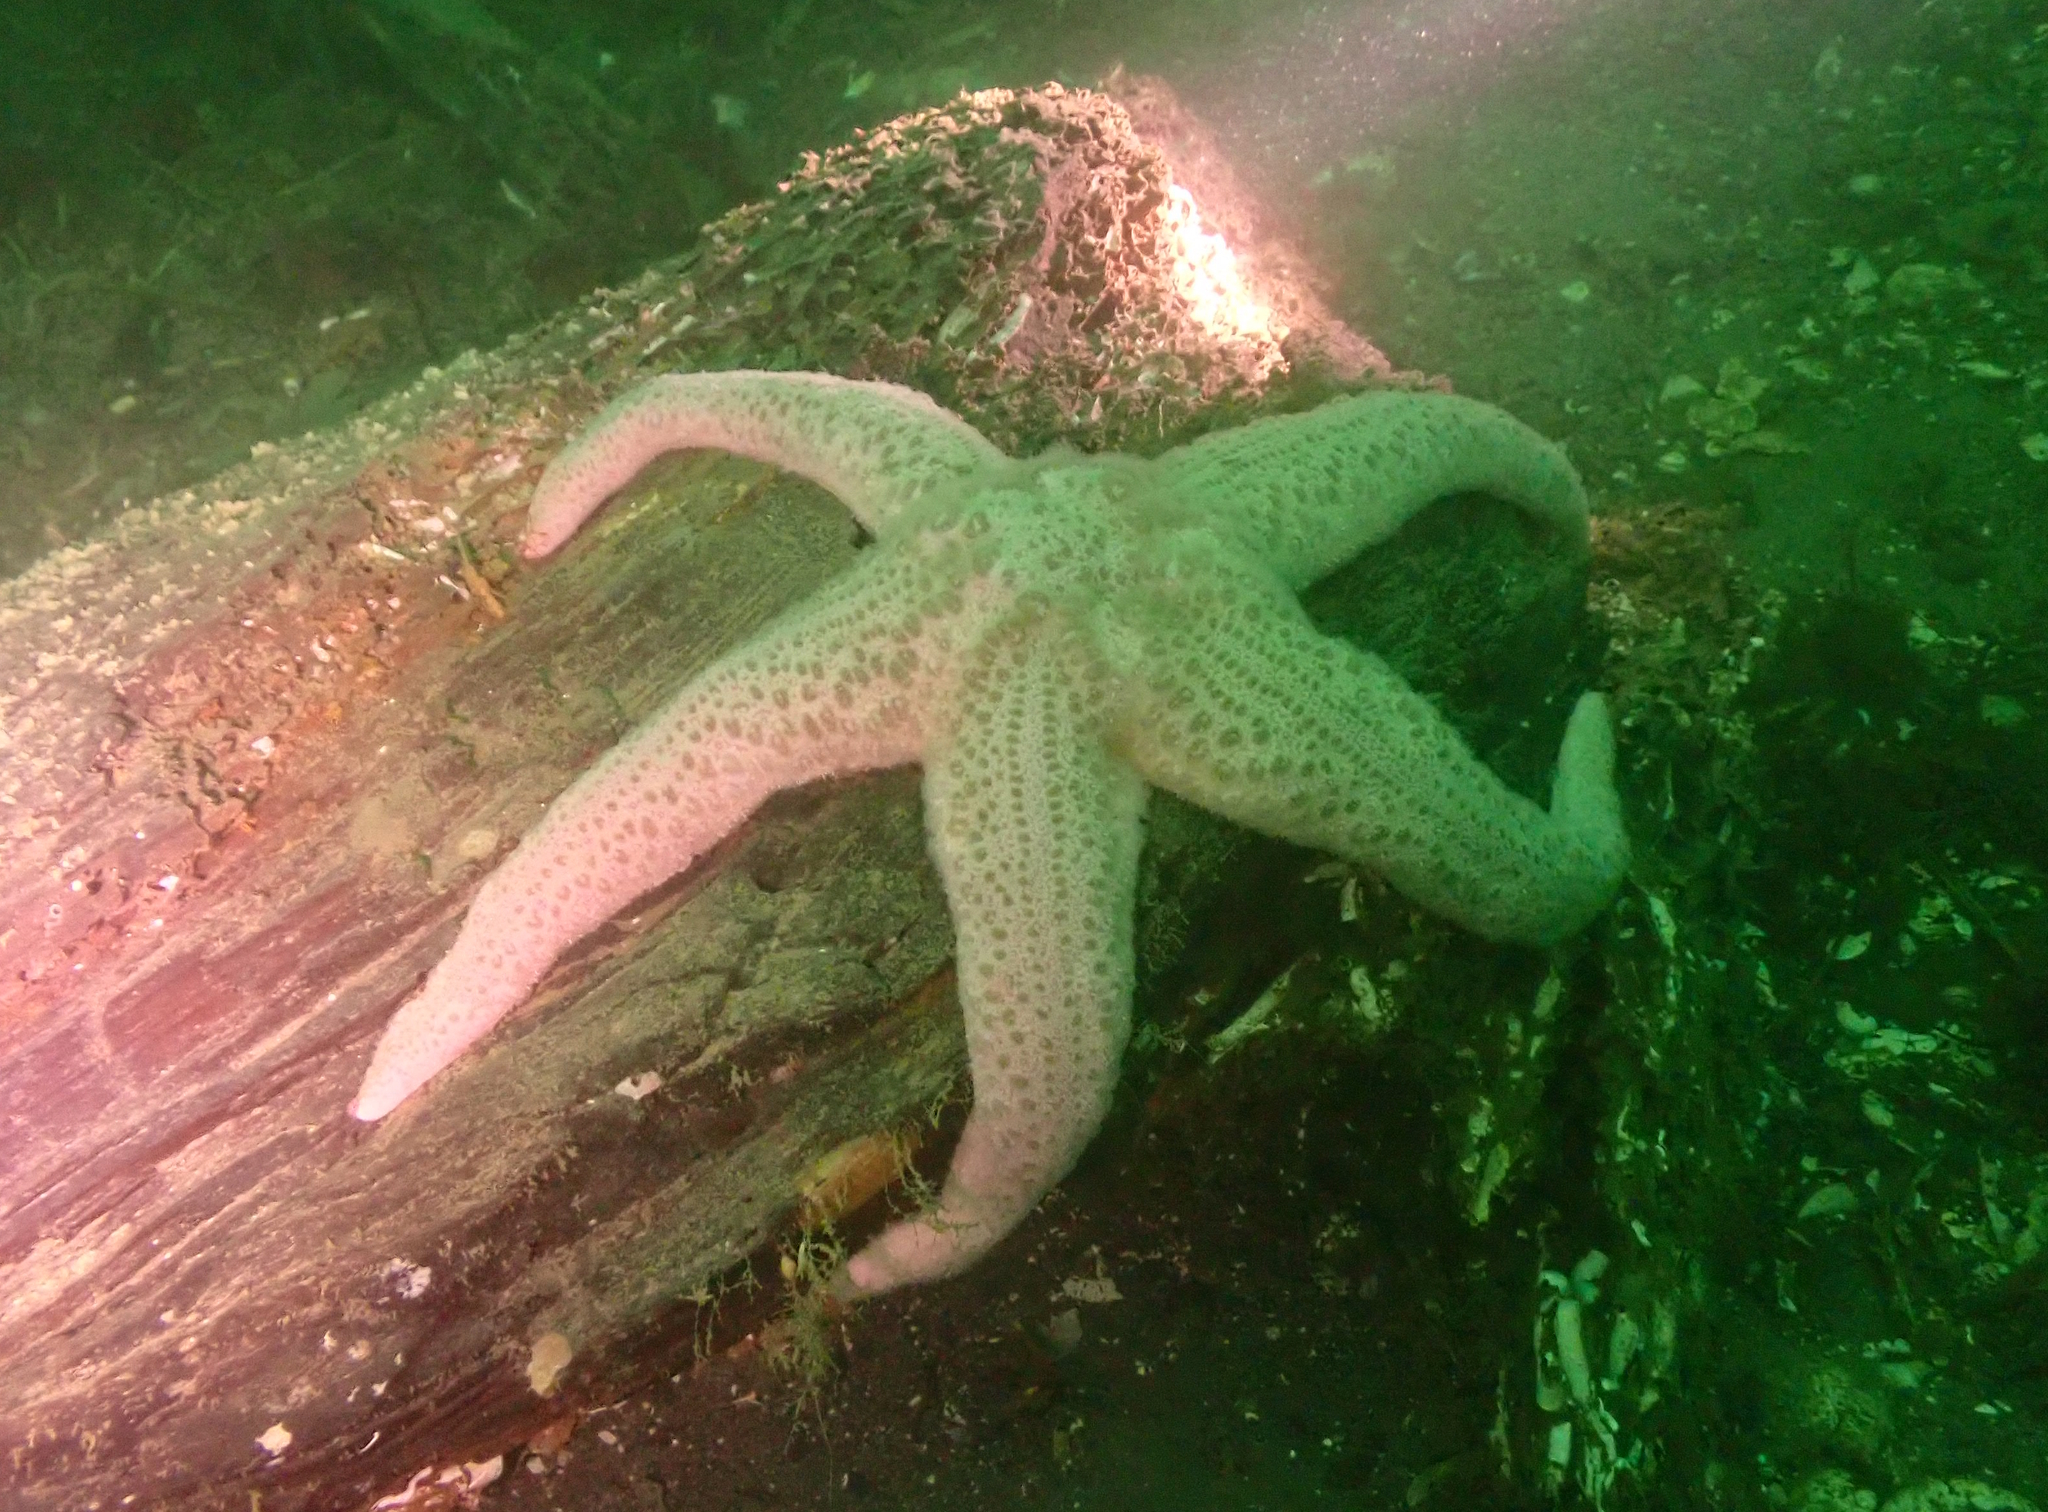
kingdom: Animalia
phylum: Echinodermata
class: Asteroidea
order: Forcipulatida
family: Asteriidae
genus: Pisaster
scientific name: Pisaster brevispinus
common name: Pink stars
